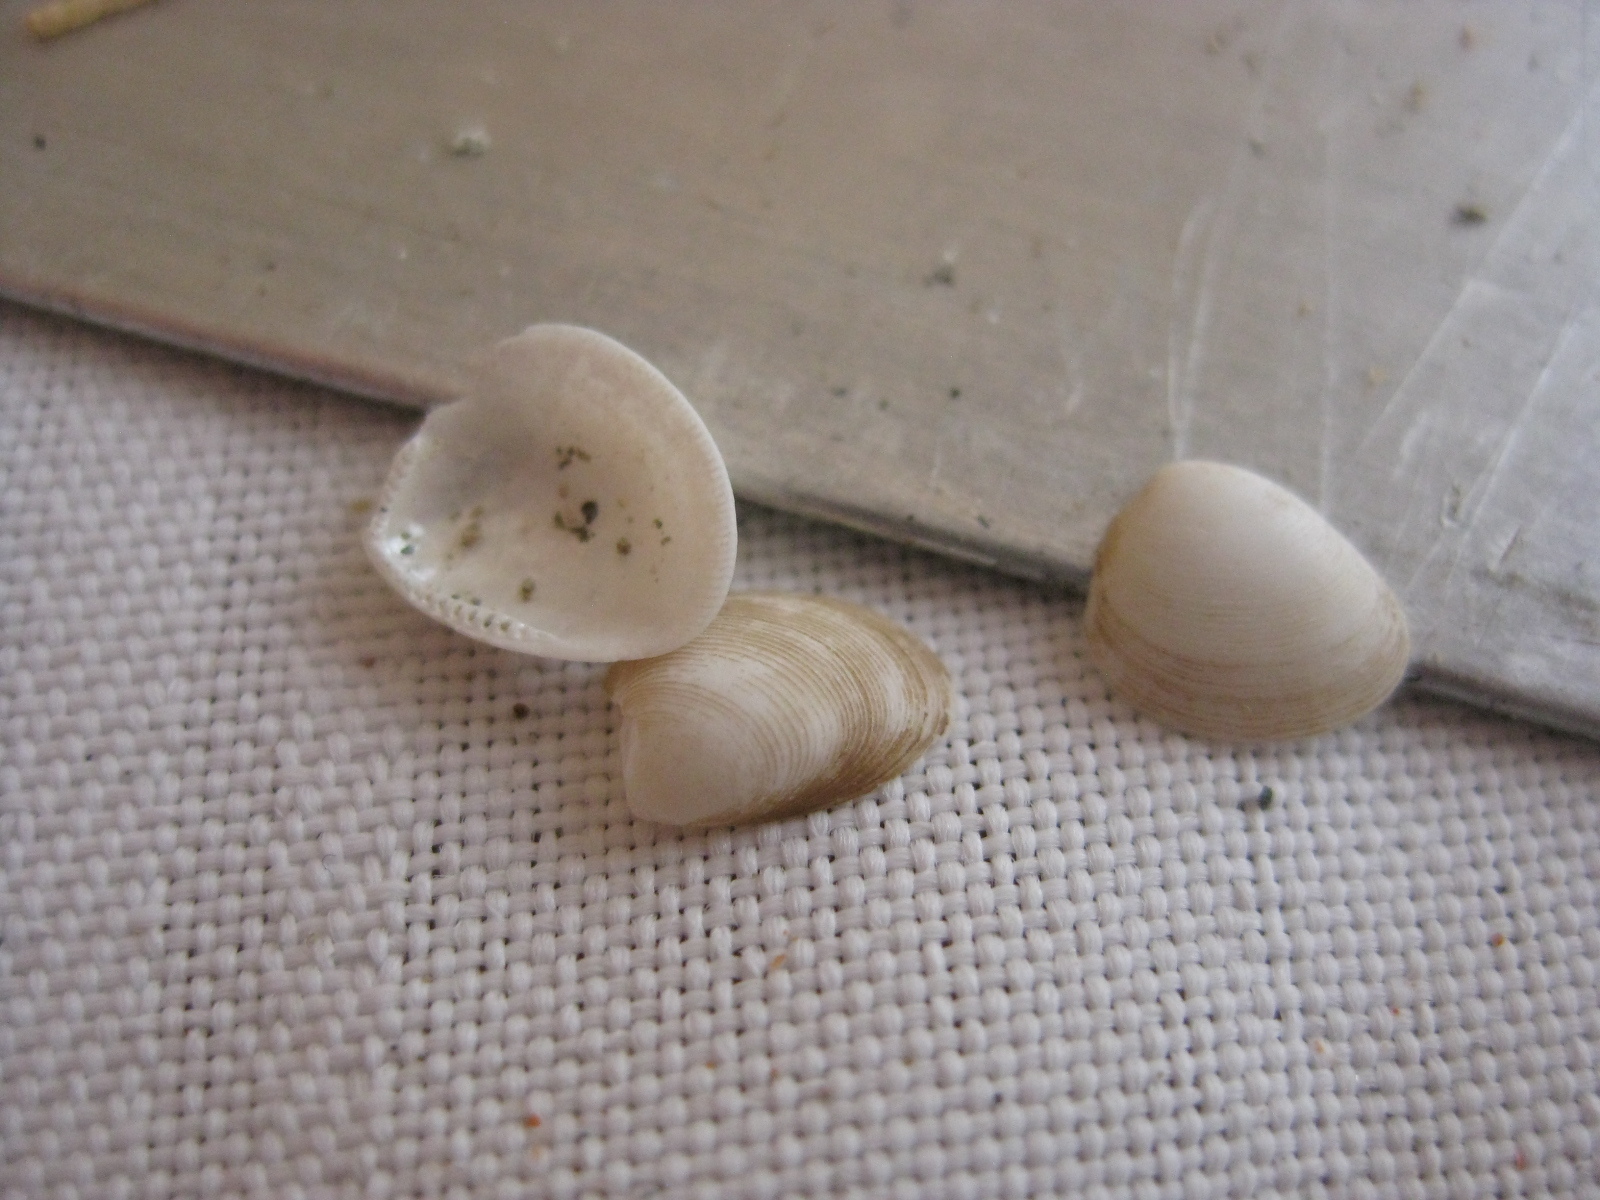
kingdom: Animalia
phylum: Mollusca
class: Bivalvia
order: Nuculida
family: Nuculidae
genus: Linucula
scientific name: Linucula hartvigiana
